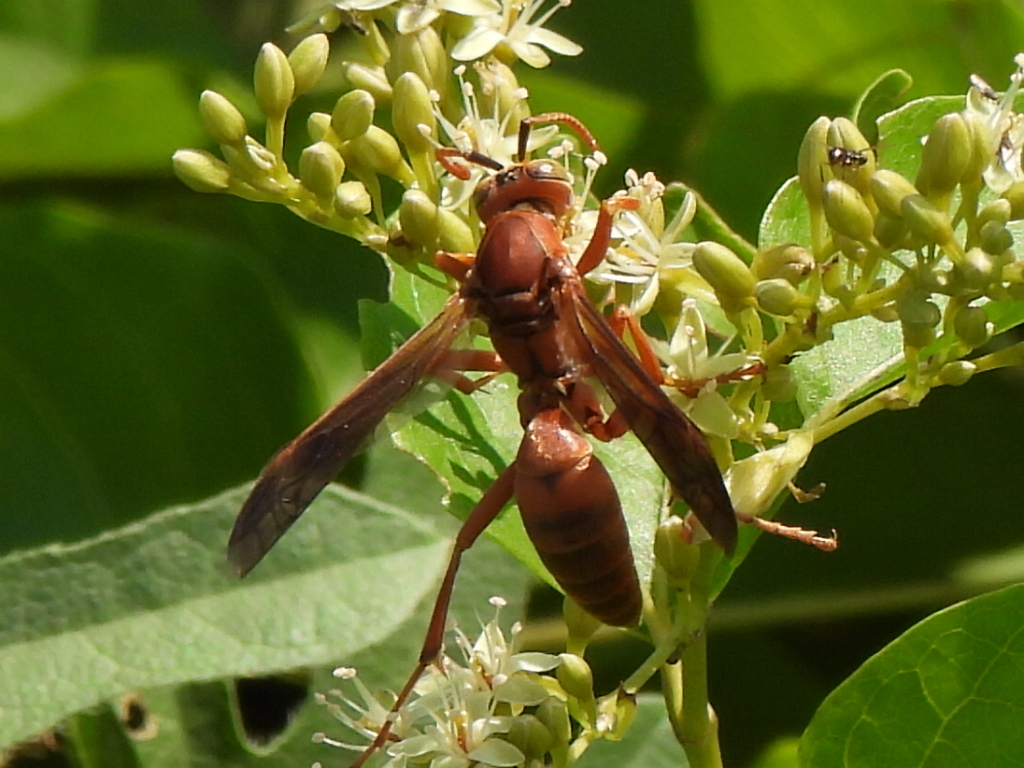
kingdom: Animalia
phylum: Arthropoda
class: Insecta
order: Hymenoptera
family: Eumenidae
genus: Polistes
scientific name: Polistes carolina
